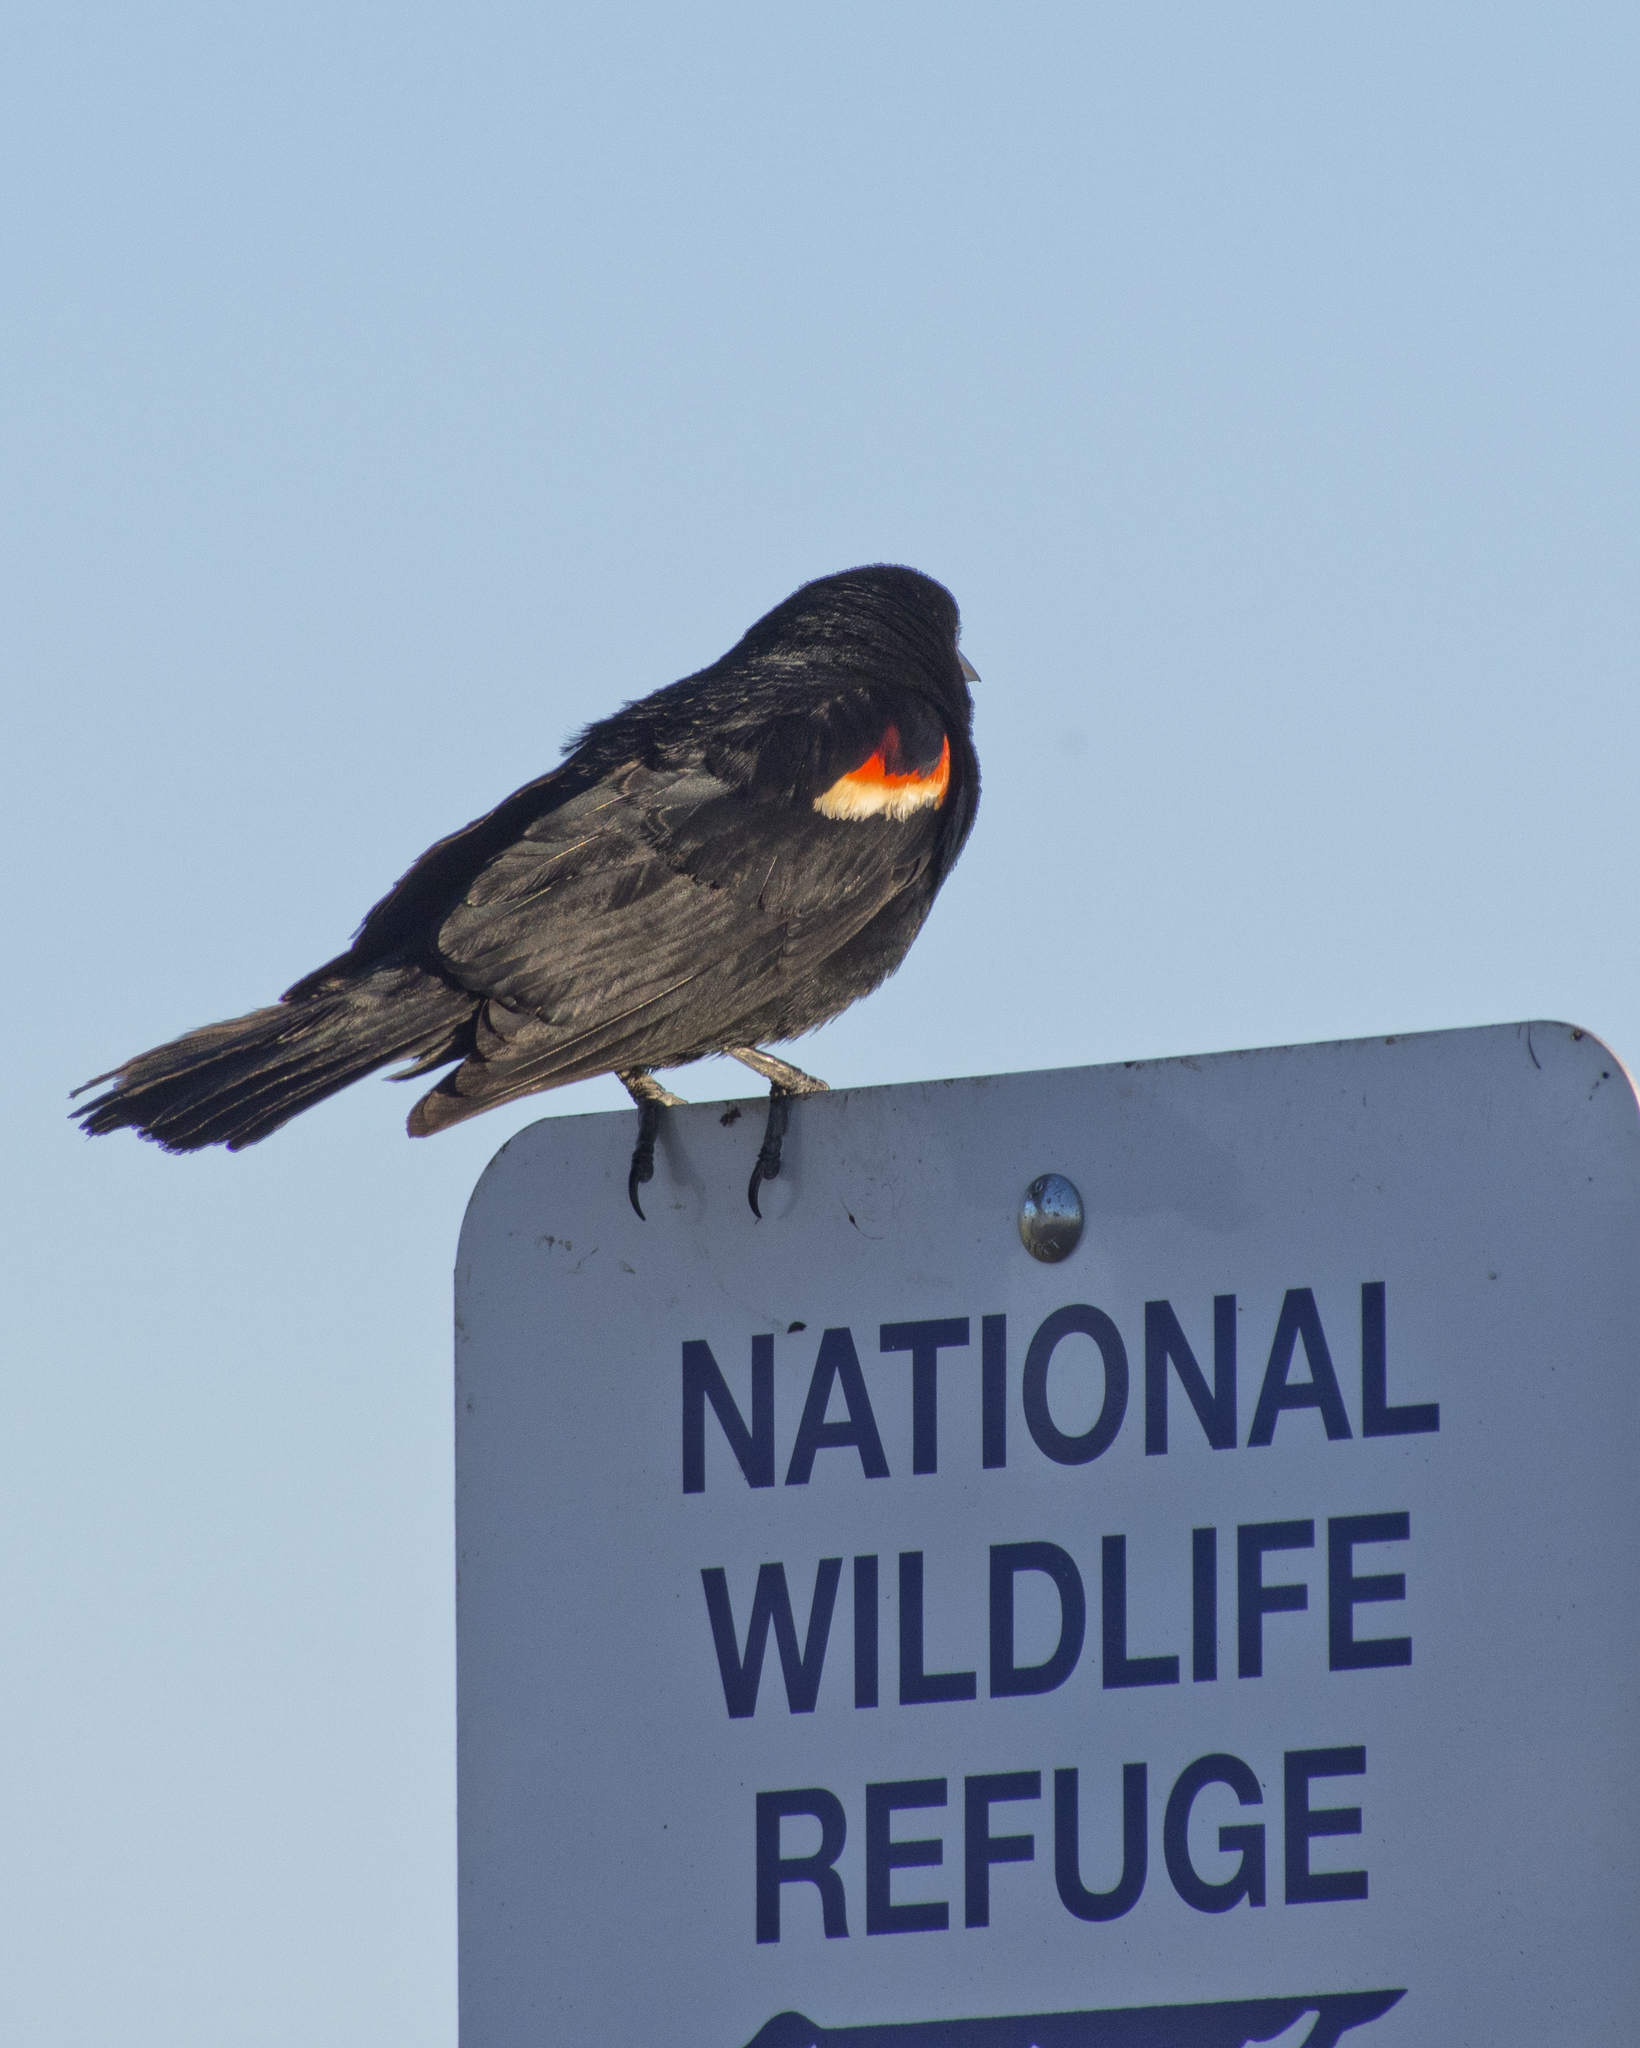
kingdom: Animalia
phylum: Chordata
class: Aves
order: Passeriformes
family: Icteridae
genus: Agelaius
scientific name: Agelaius phoeniceus
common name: Red-winged blackbird
